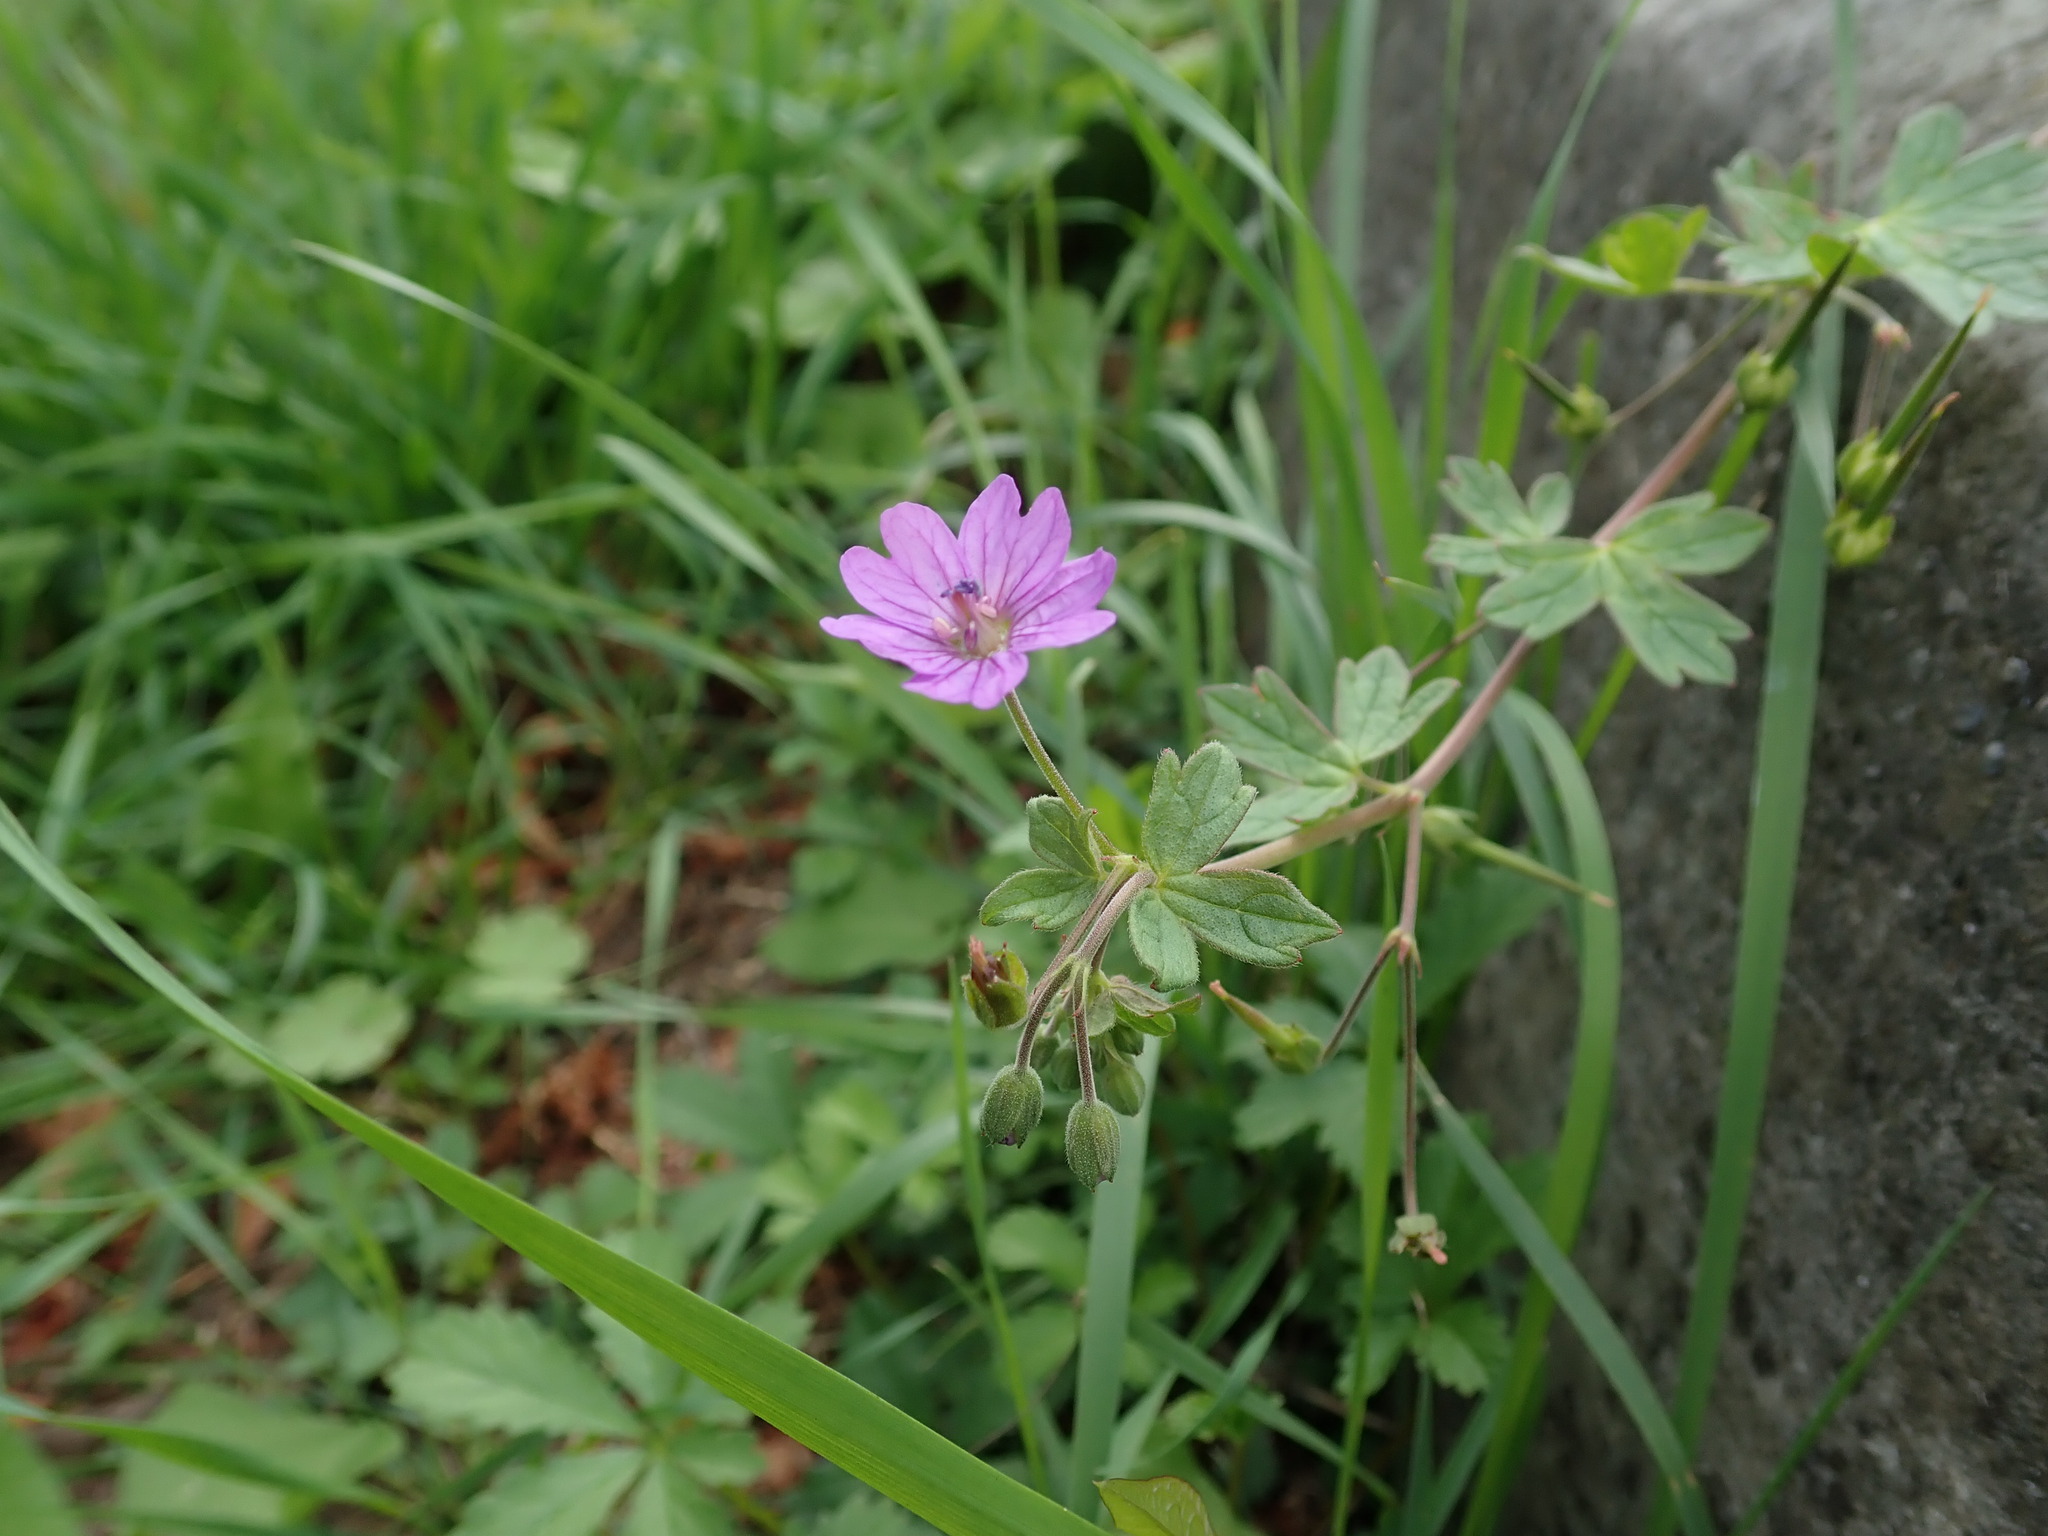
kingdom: Plantae
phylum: Tracheophyta
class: Magnoliopsida
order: Geraniales
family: Geraniaceae
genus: Geranium
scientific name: Geranium pyrenaicum
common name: Hedgerow crane's-bill
